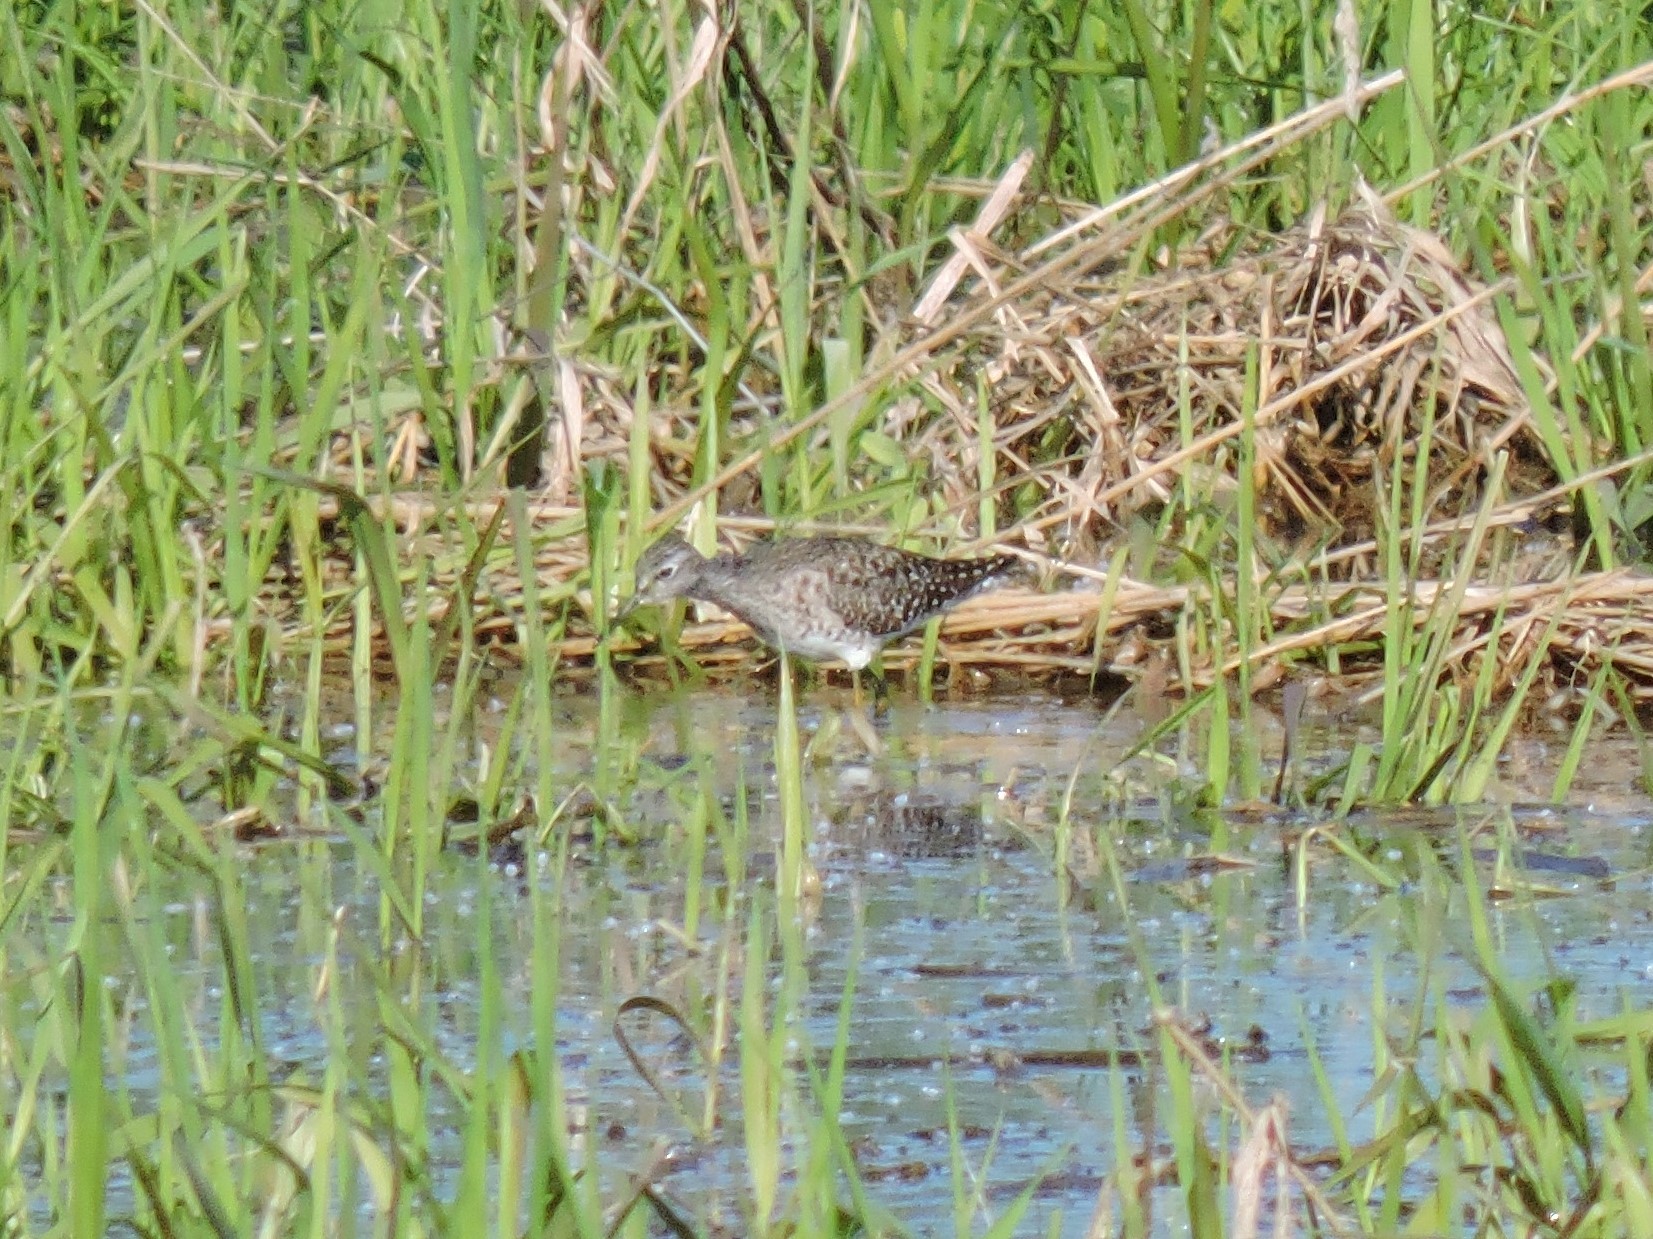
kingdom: Animalia
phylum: Chordata
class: Aves
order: Charadriiformes
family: Scolopacidae
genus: Tringa
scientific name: Tringa glareola
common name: Wood sandpiper
